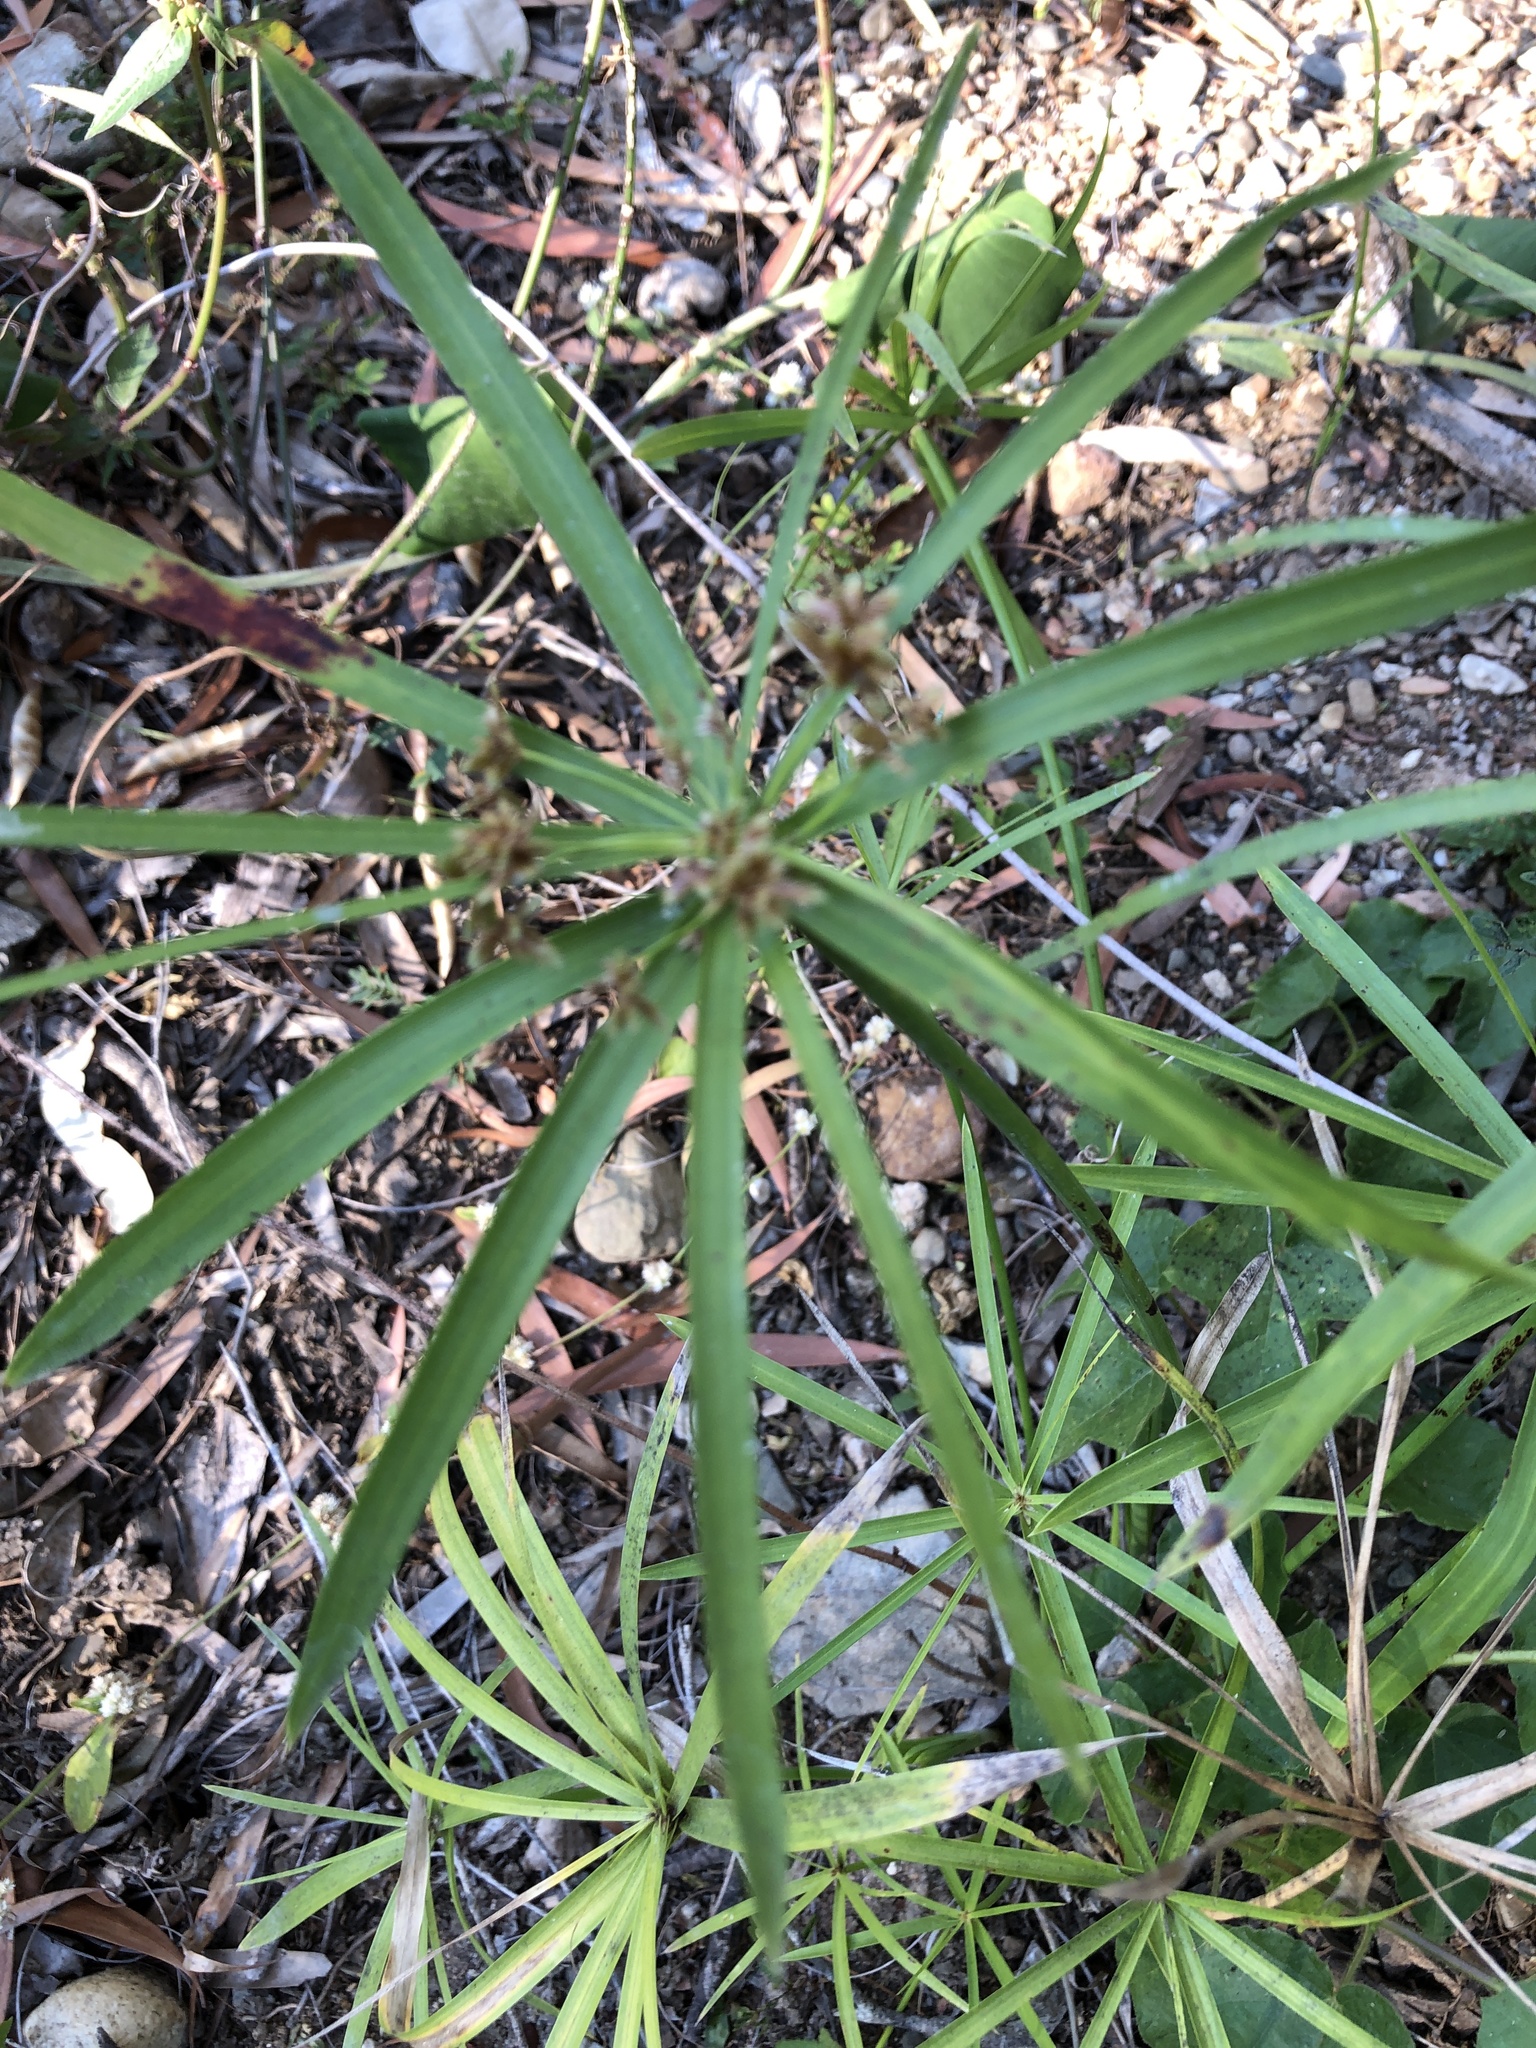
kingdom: Plantae
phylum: Tracheophyta
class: Liliopsida
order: Poales
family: Cyperaceae
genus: Cyperus
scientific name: Cyperus alternifolius
